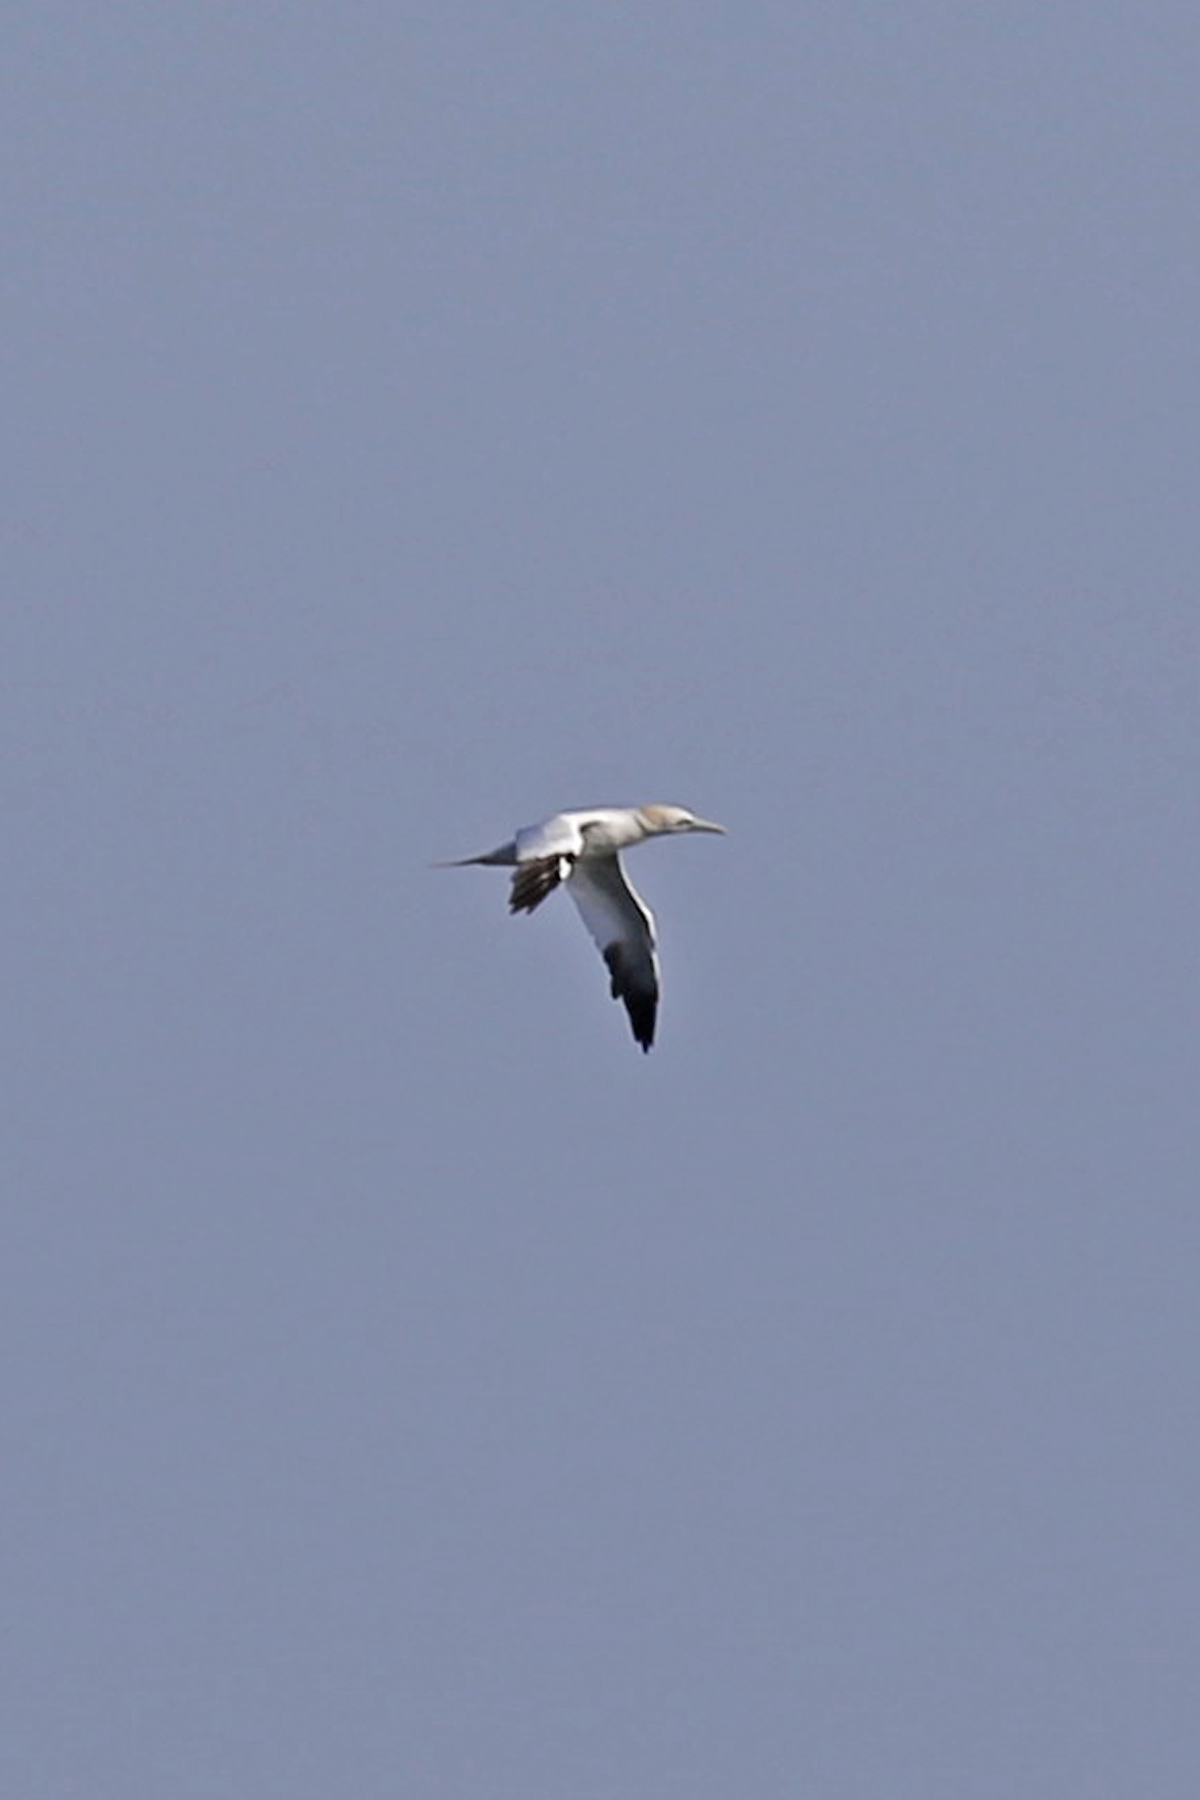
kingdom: Animalia
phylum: Chordata
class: Aves
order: Suliformes
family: Sulidae
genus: Morus
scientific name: Morus bassanus
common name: Northern gannet
